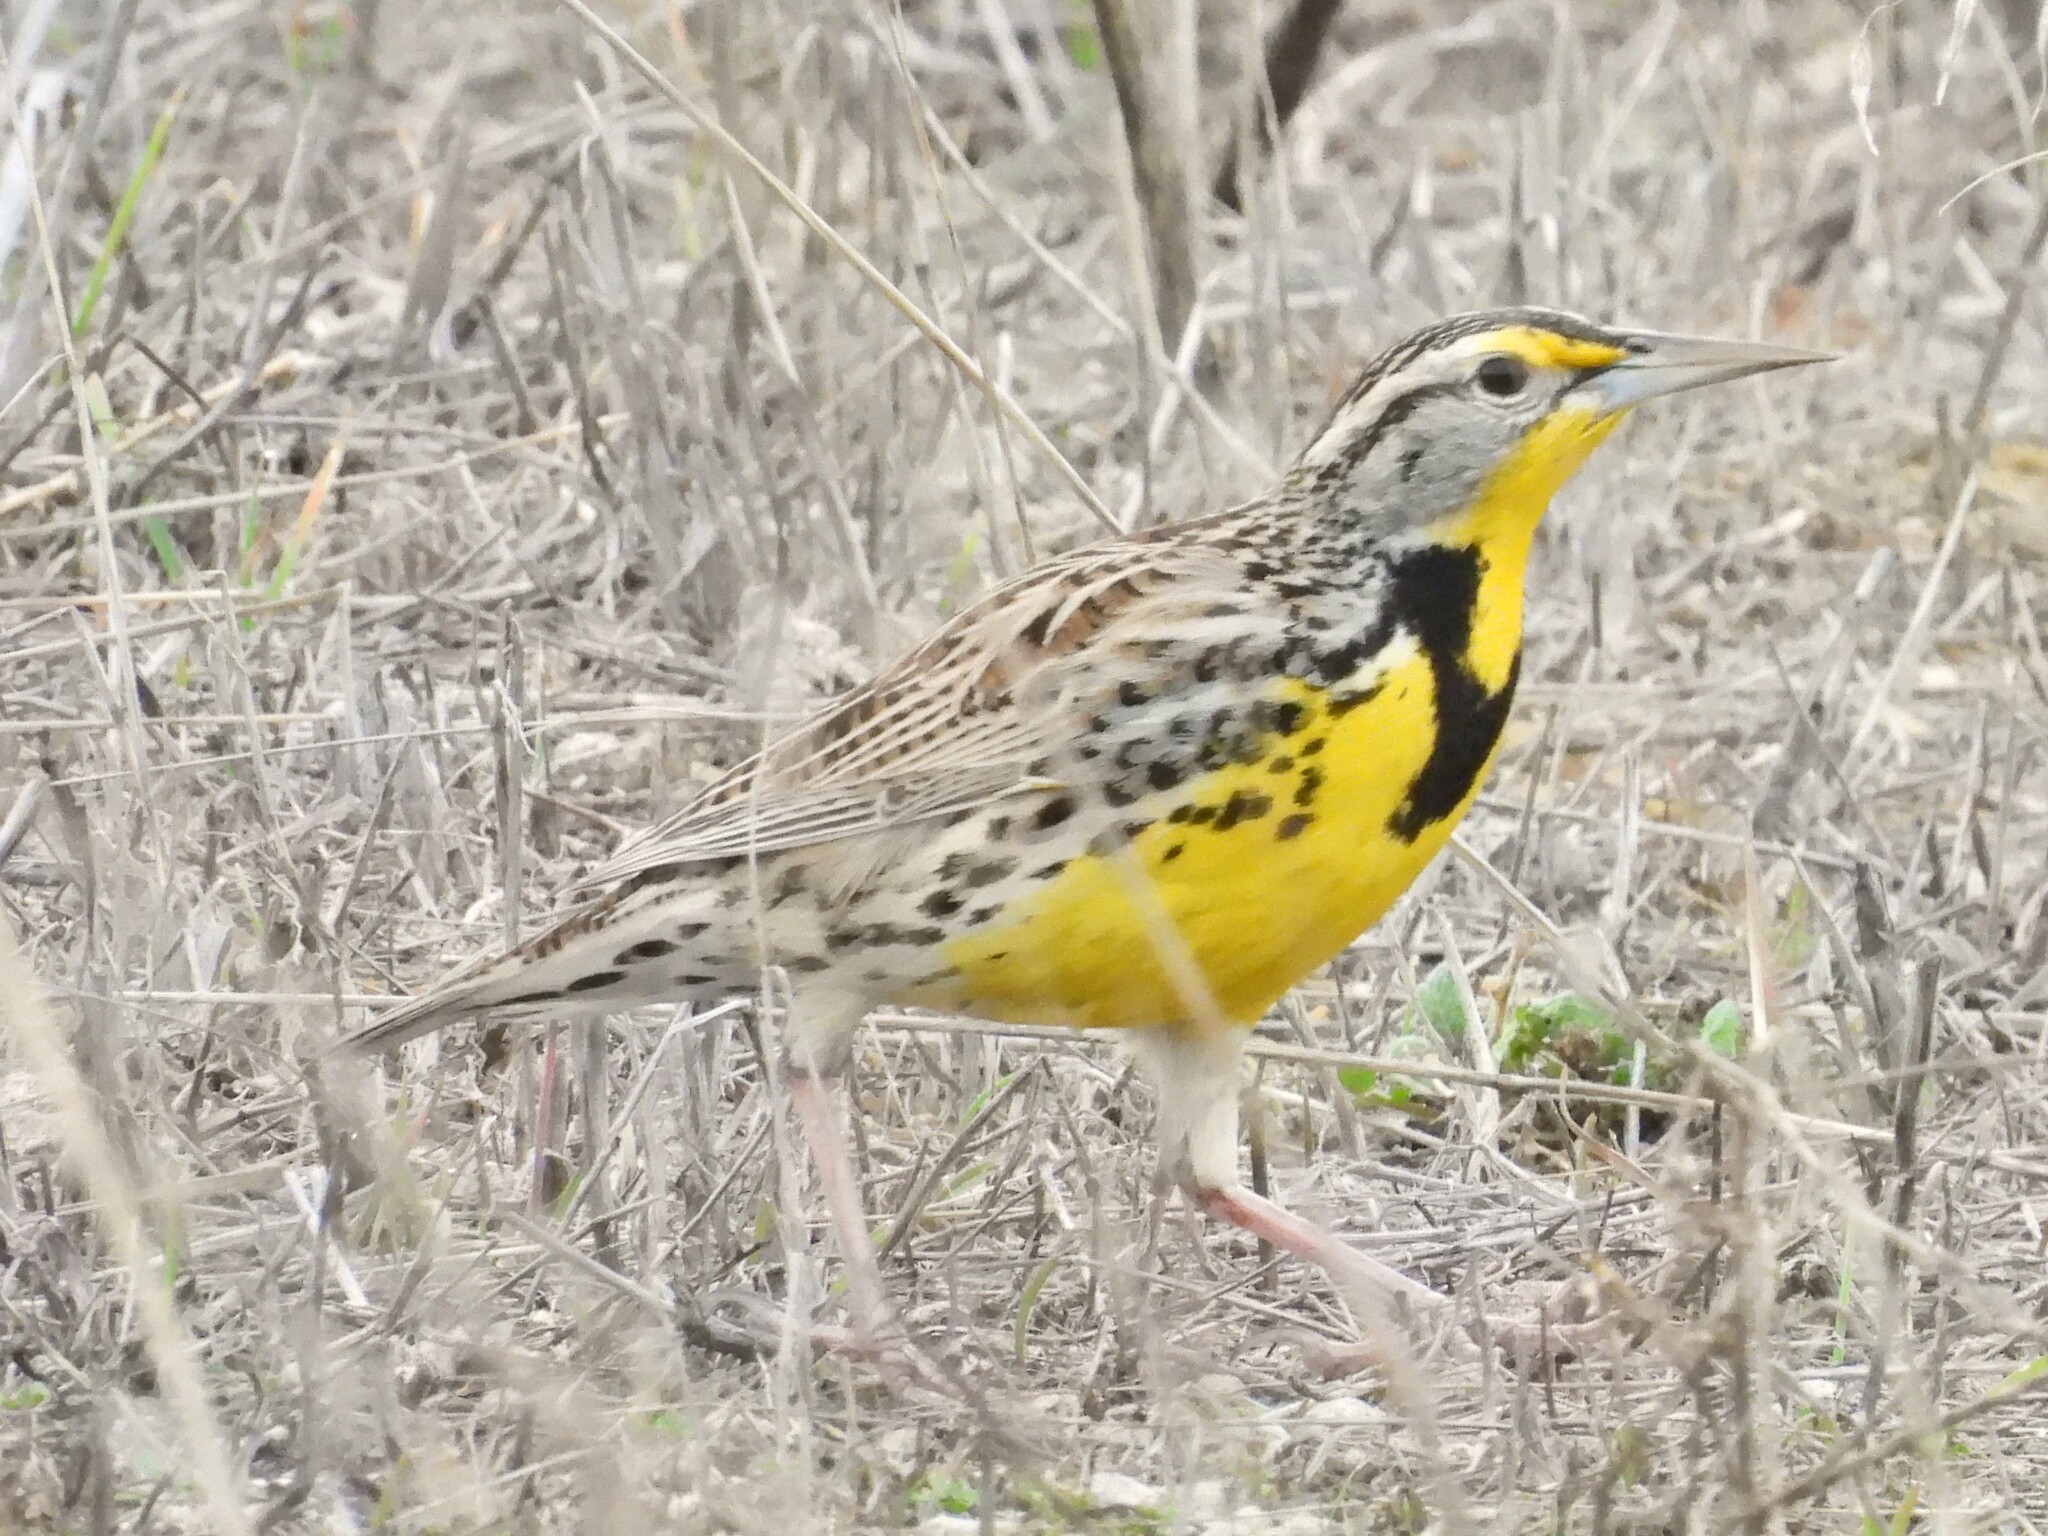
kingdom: Animalia
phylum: Chordata
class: Aves
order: Passeriformes
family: Icteridae
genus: Sturnella
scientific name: Sturnella neglecta
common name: Western meadowlark
